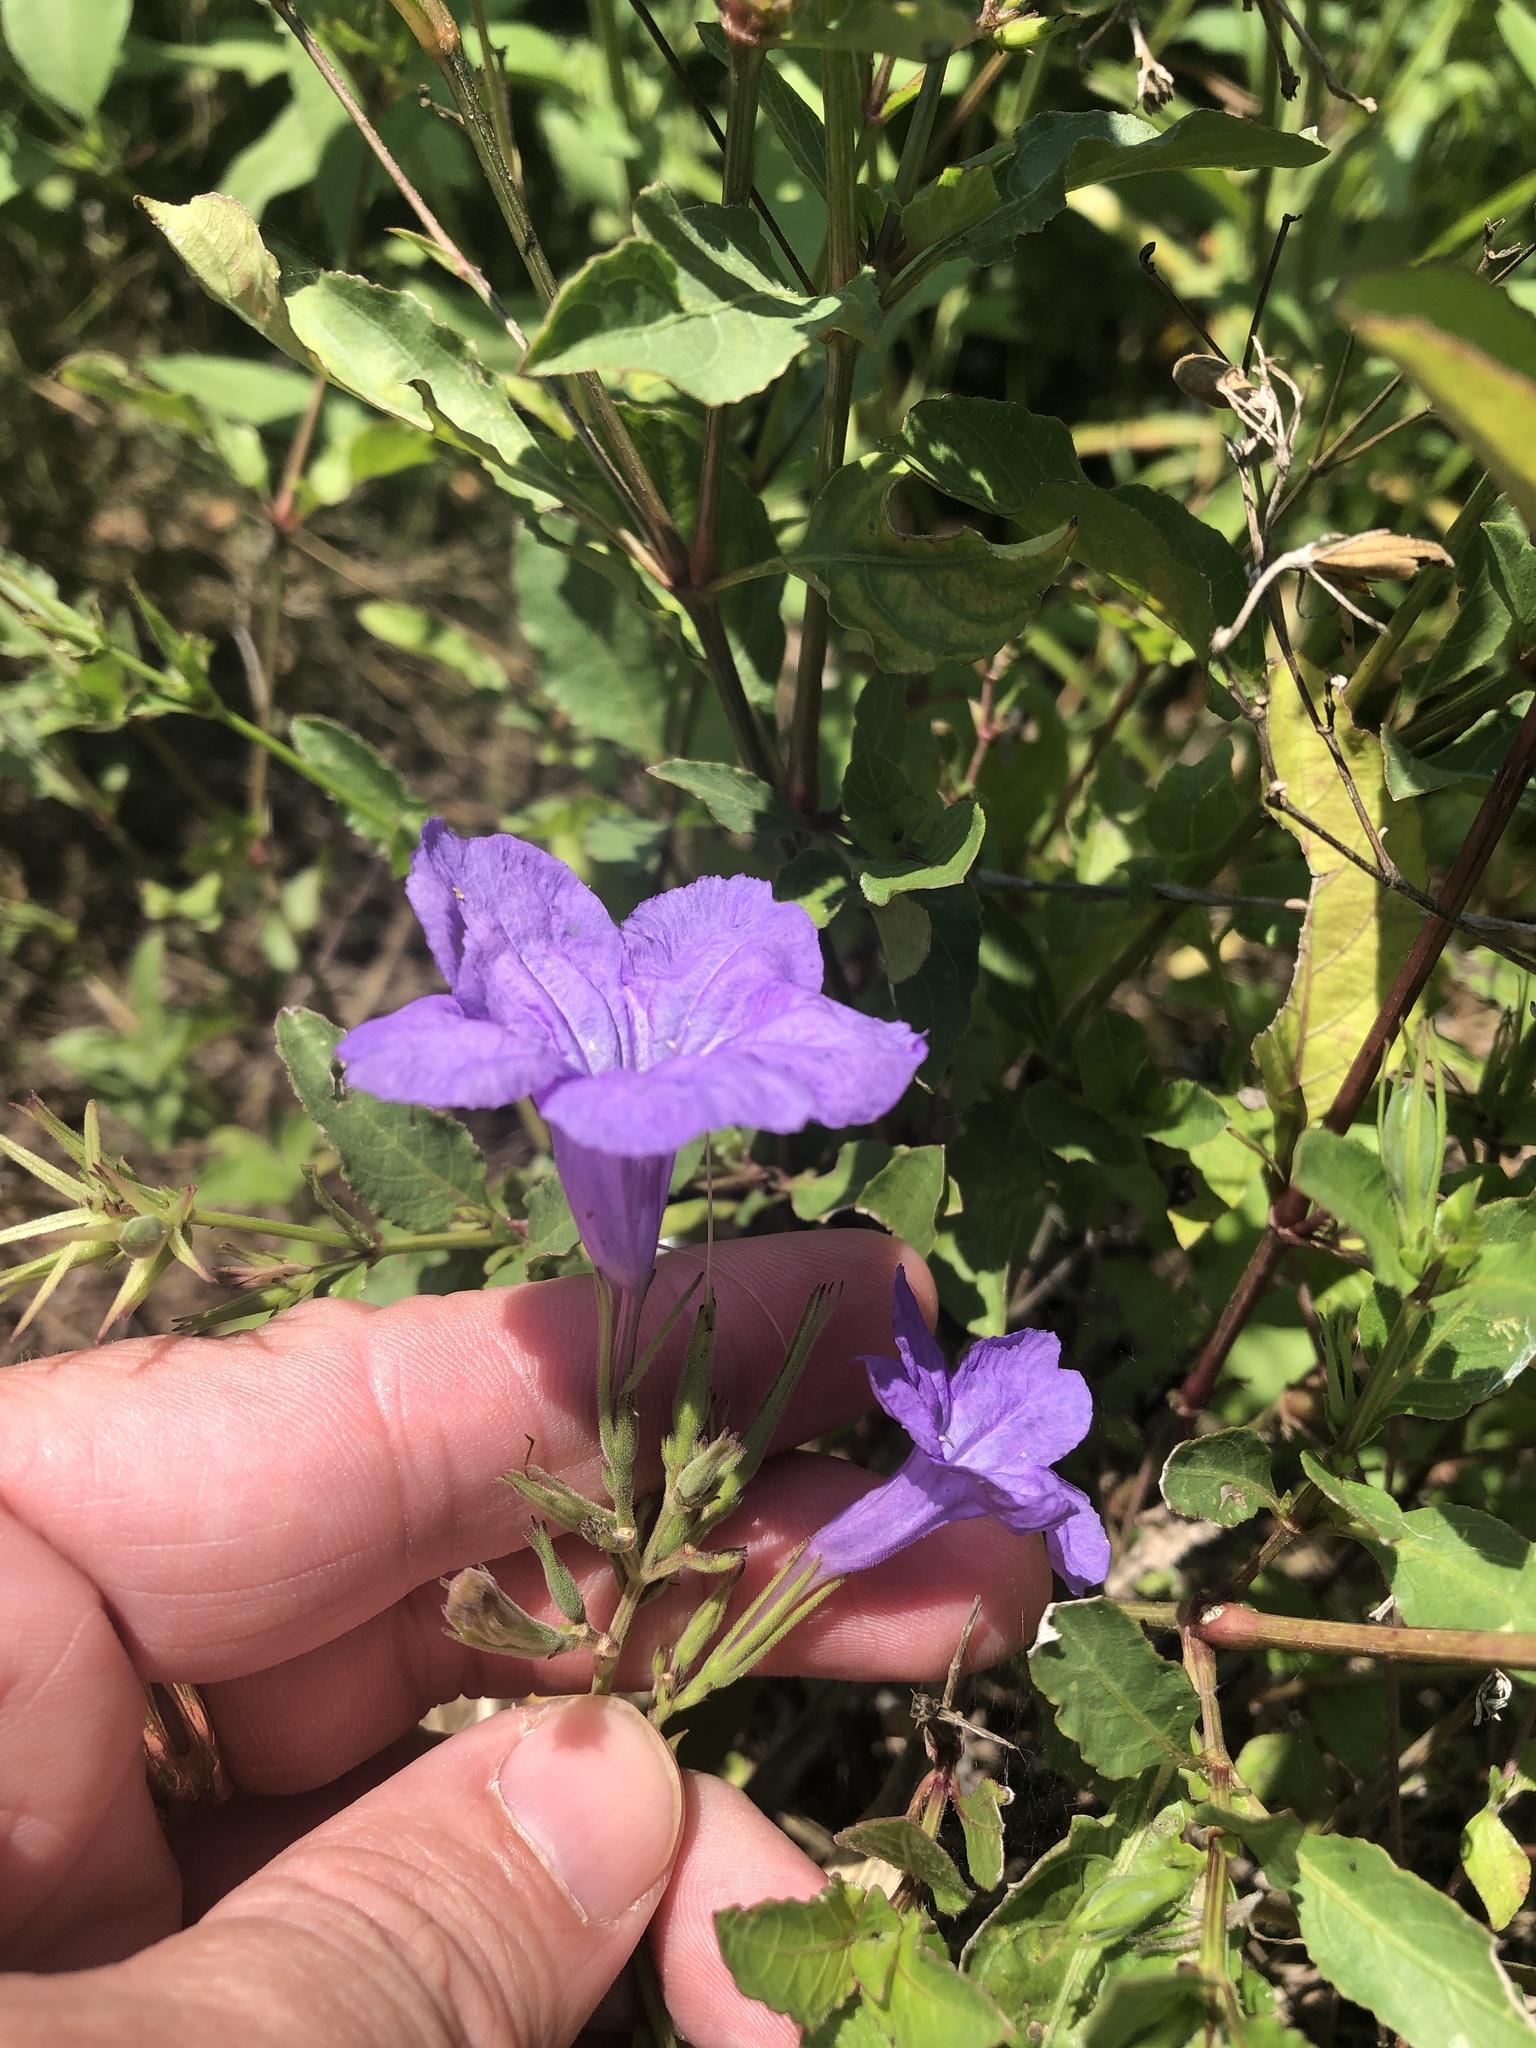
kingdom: Plantae
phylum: Tracheophyta
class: Magnoliopsida
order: Lamiales
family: Acanthaceae
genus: Ruellia
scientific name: Ruellia ciliatiflora
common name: Hairyflower wild petunia
